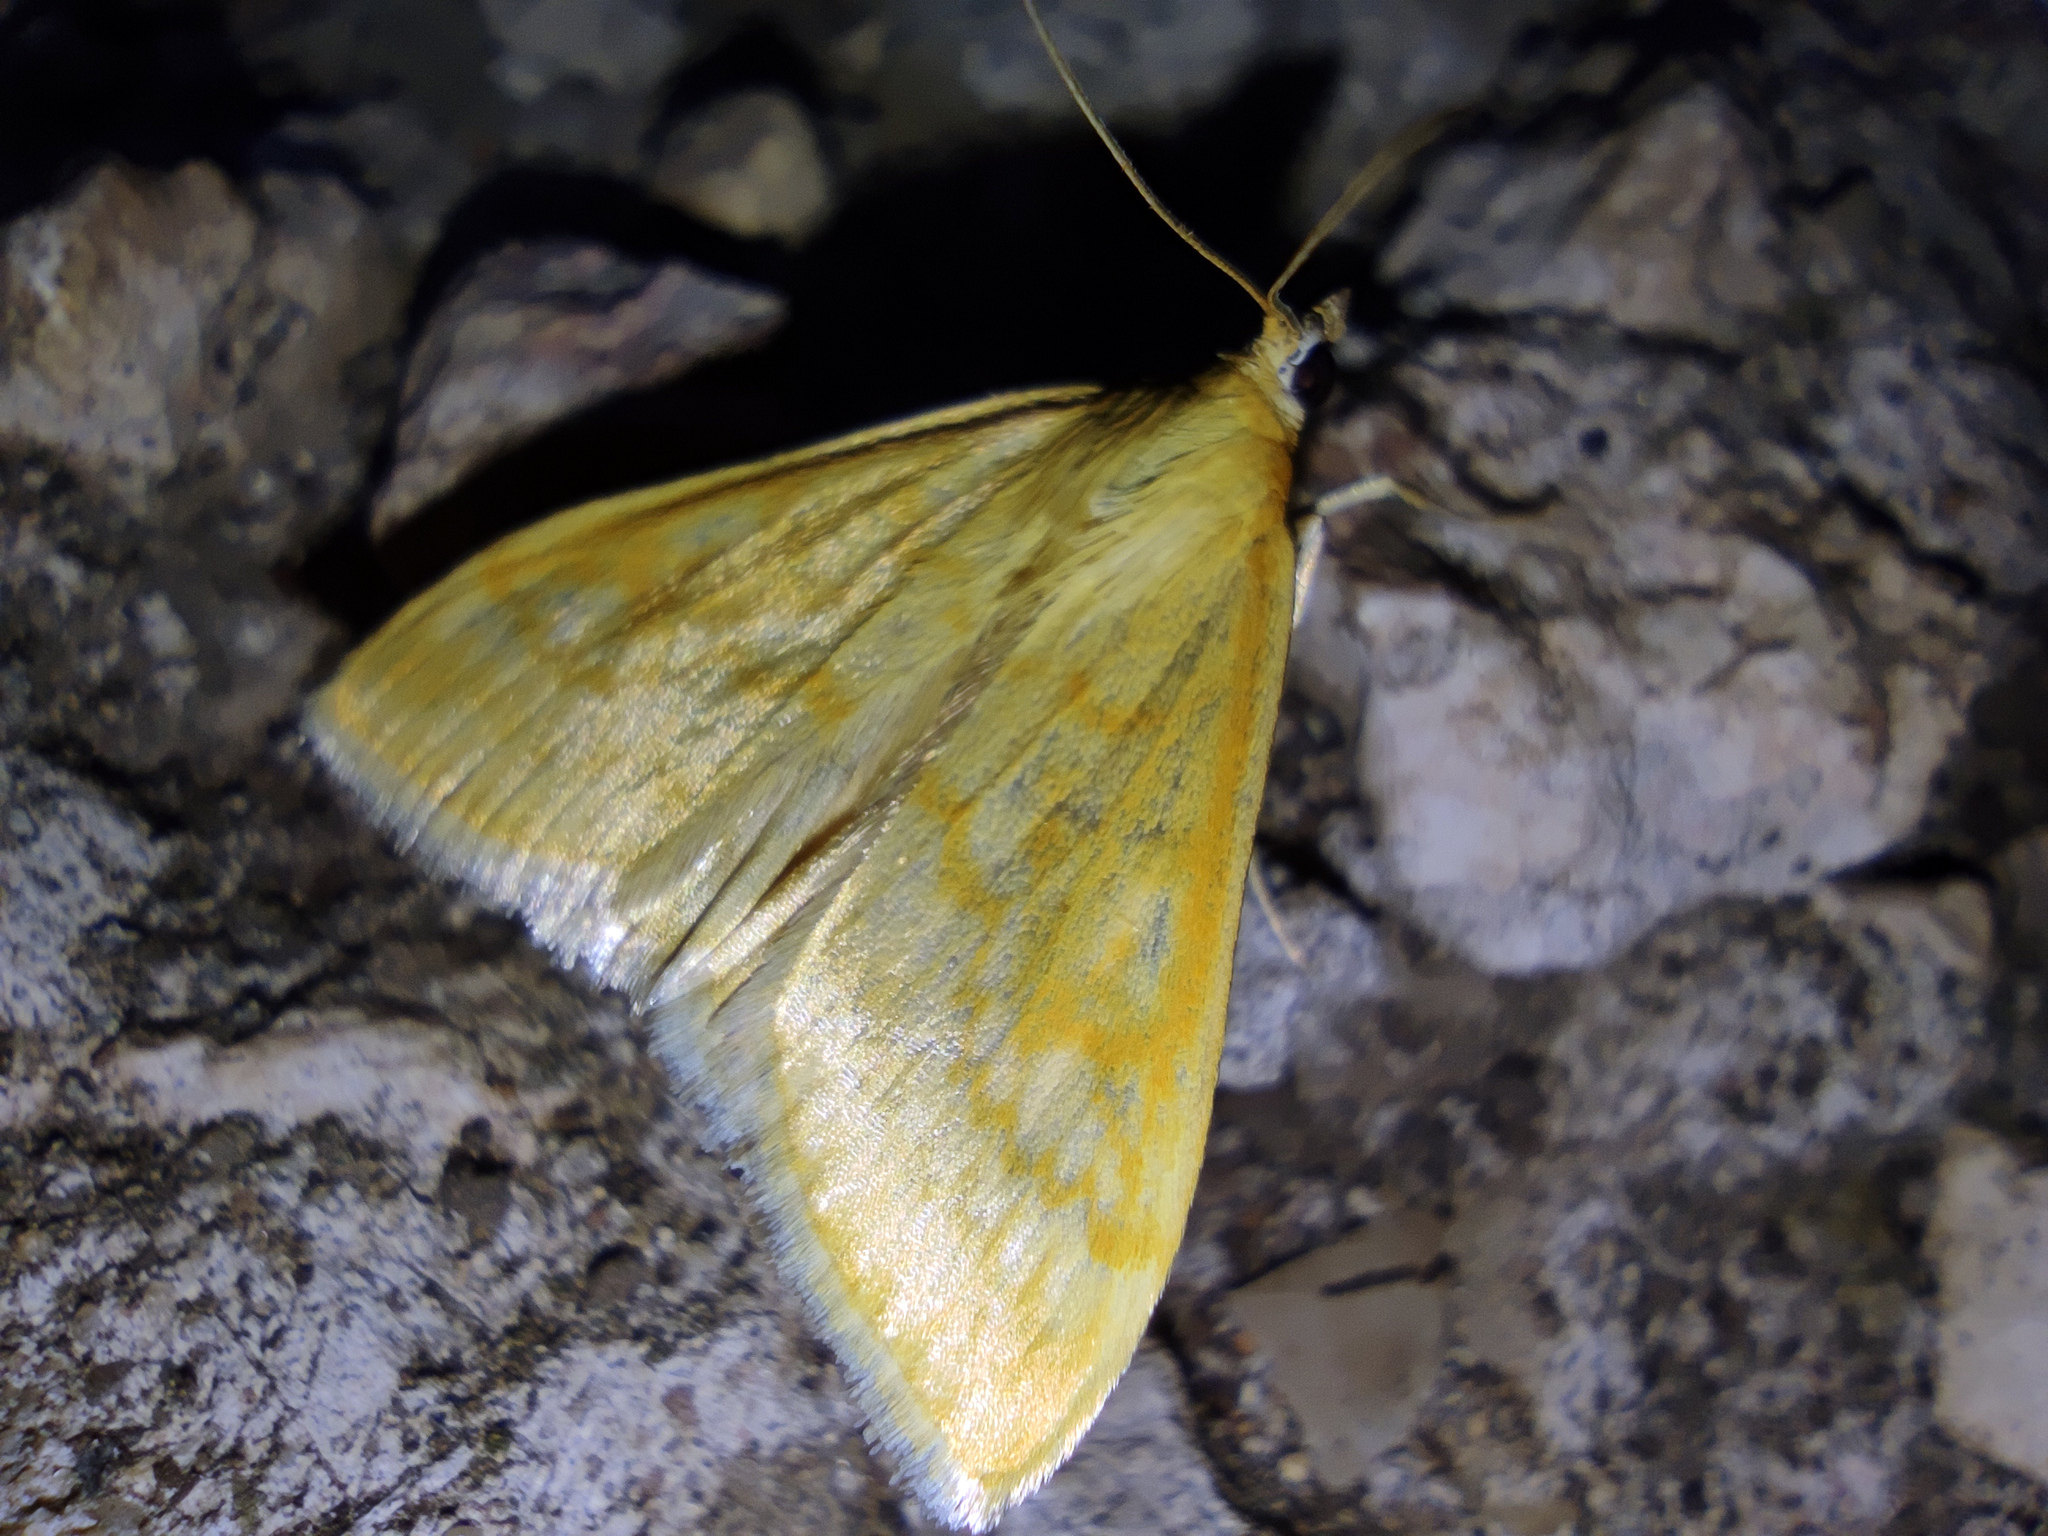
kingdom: Animalia
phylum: Arthropoda
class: Insecta
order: Lepidoptera
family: Crambidae
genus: Sitochroa
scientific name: Sitochroa verticalis
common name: Lesser pearl
